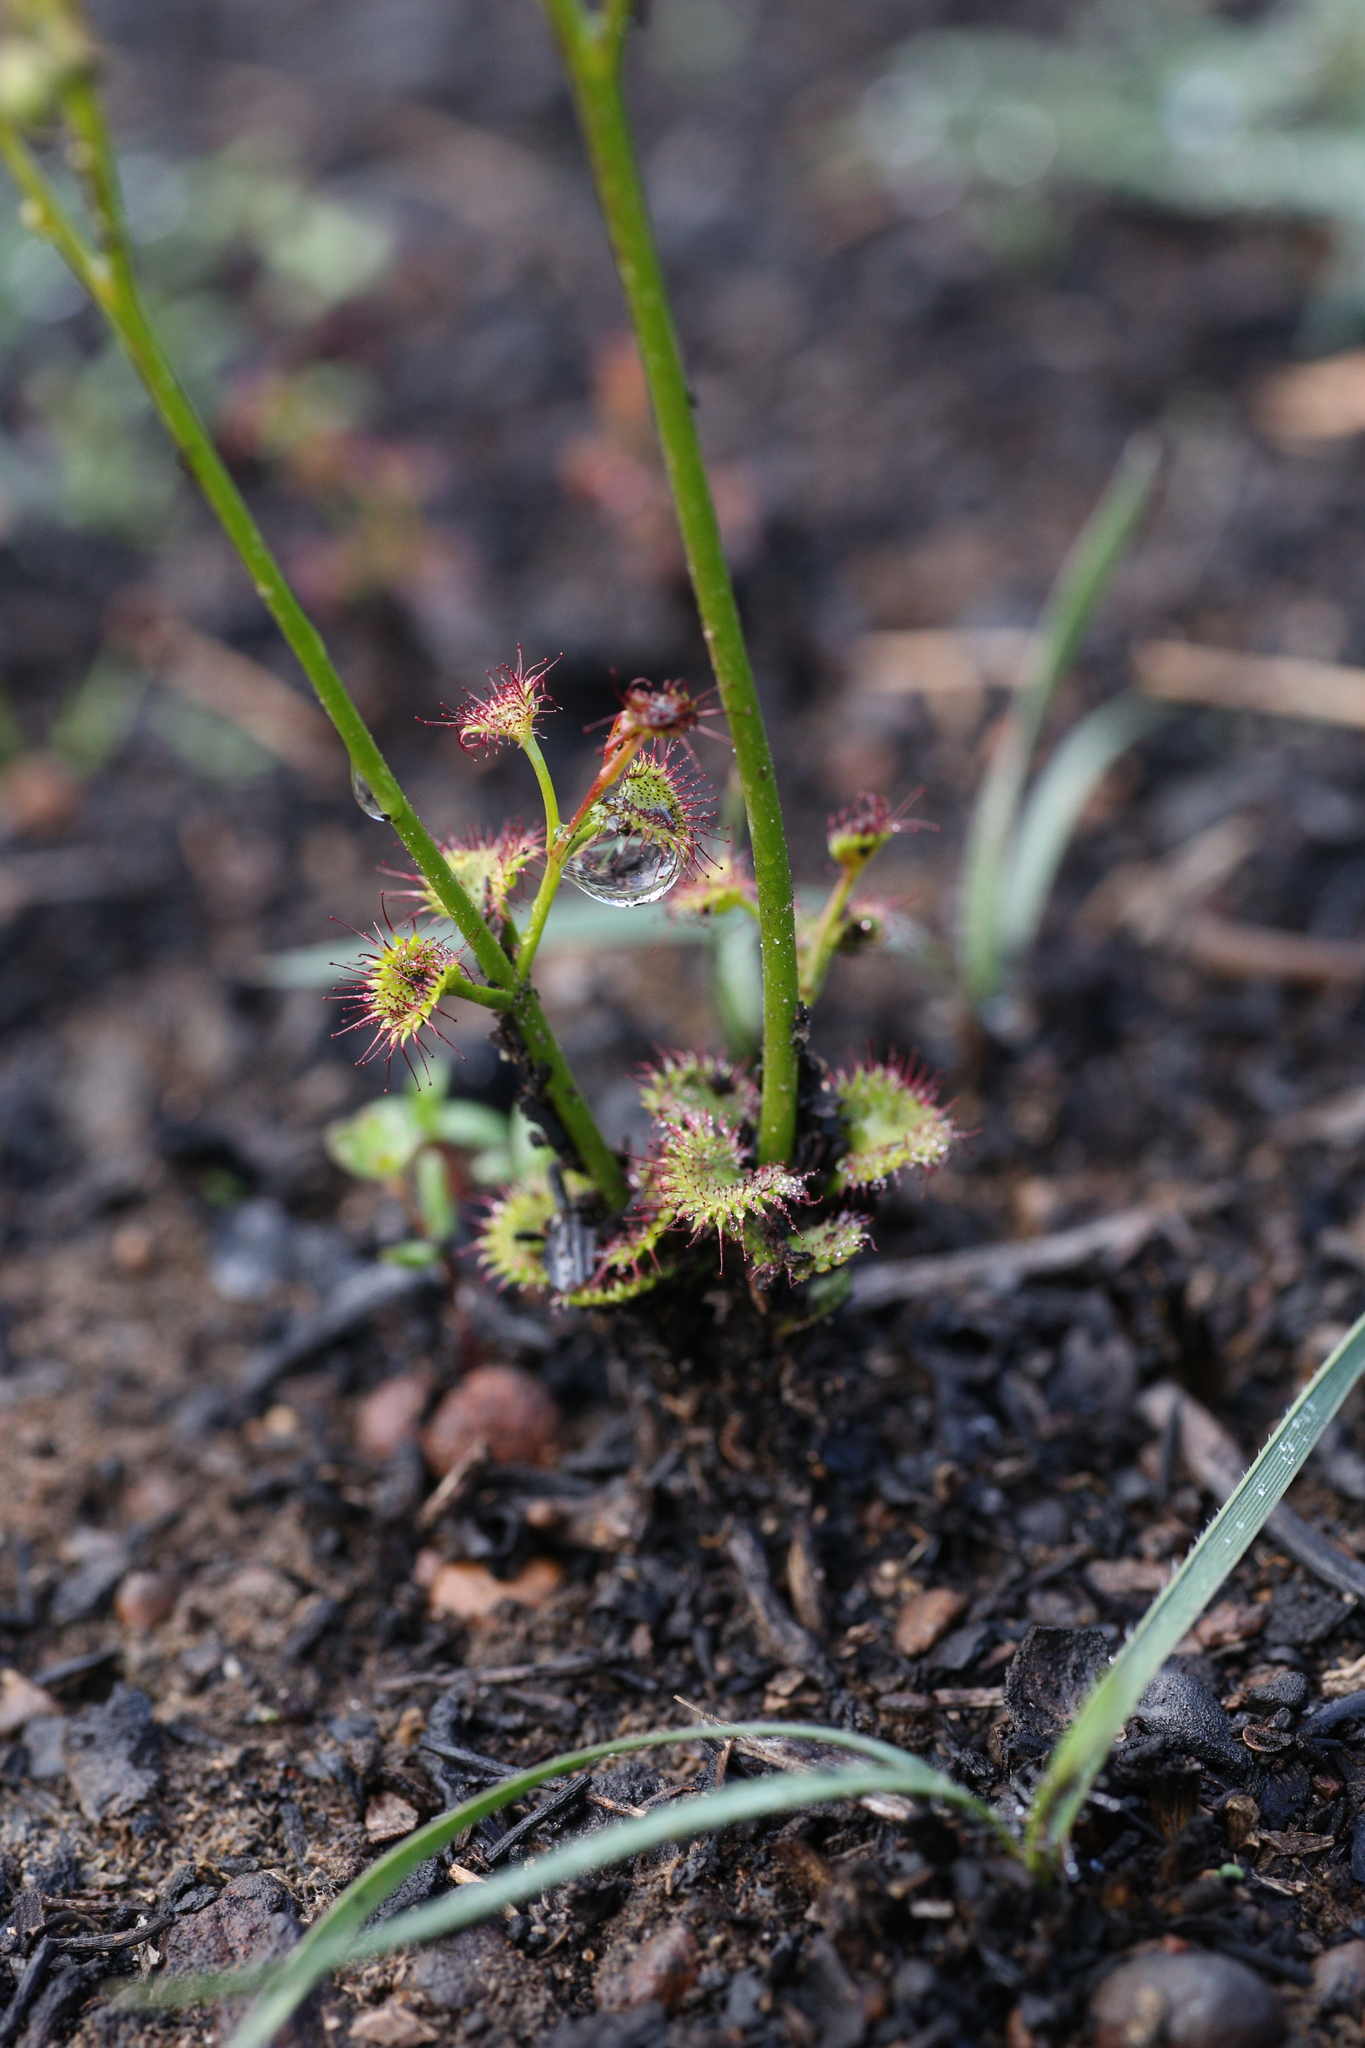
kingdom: Plantae
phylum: Tracheophyta
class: Magnoliopsida
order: Caryophyllales
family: Droseraceae
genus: Drosera
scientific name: Drosera stolonifera
